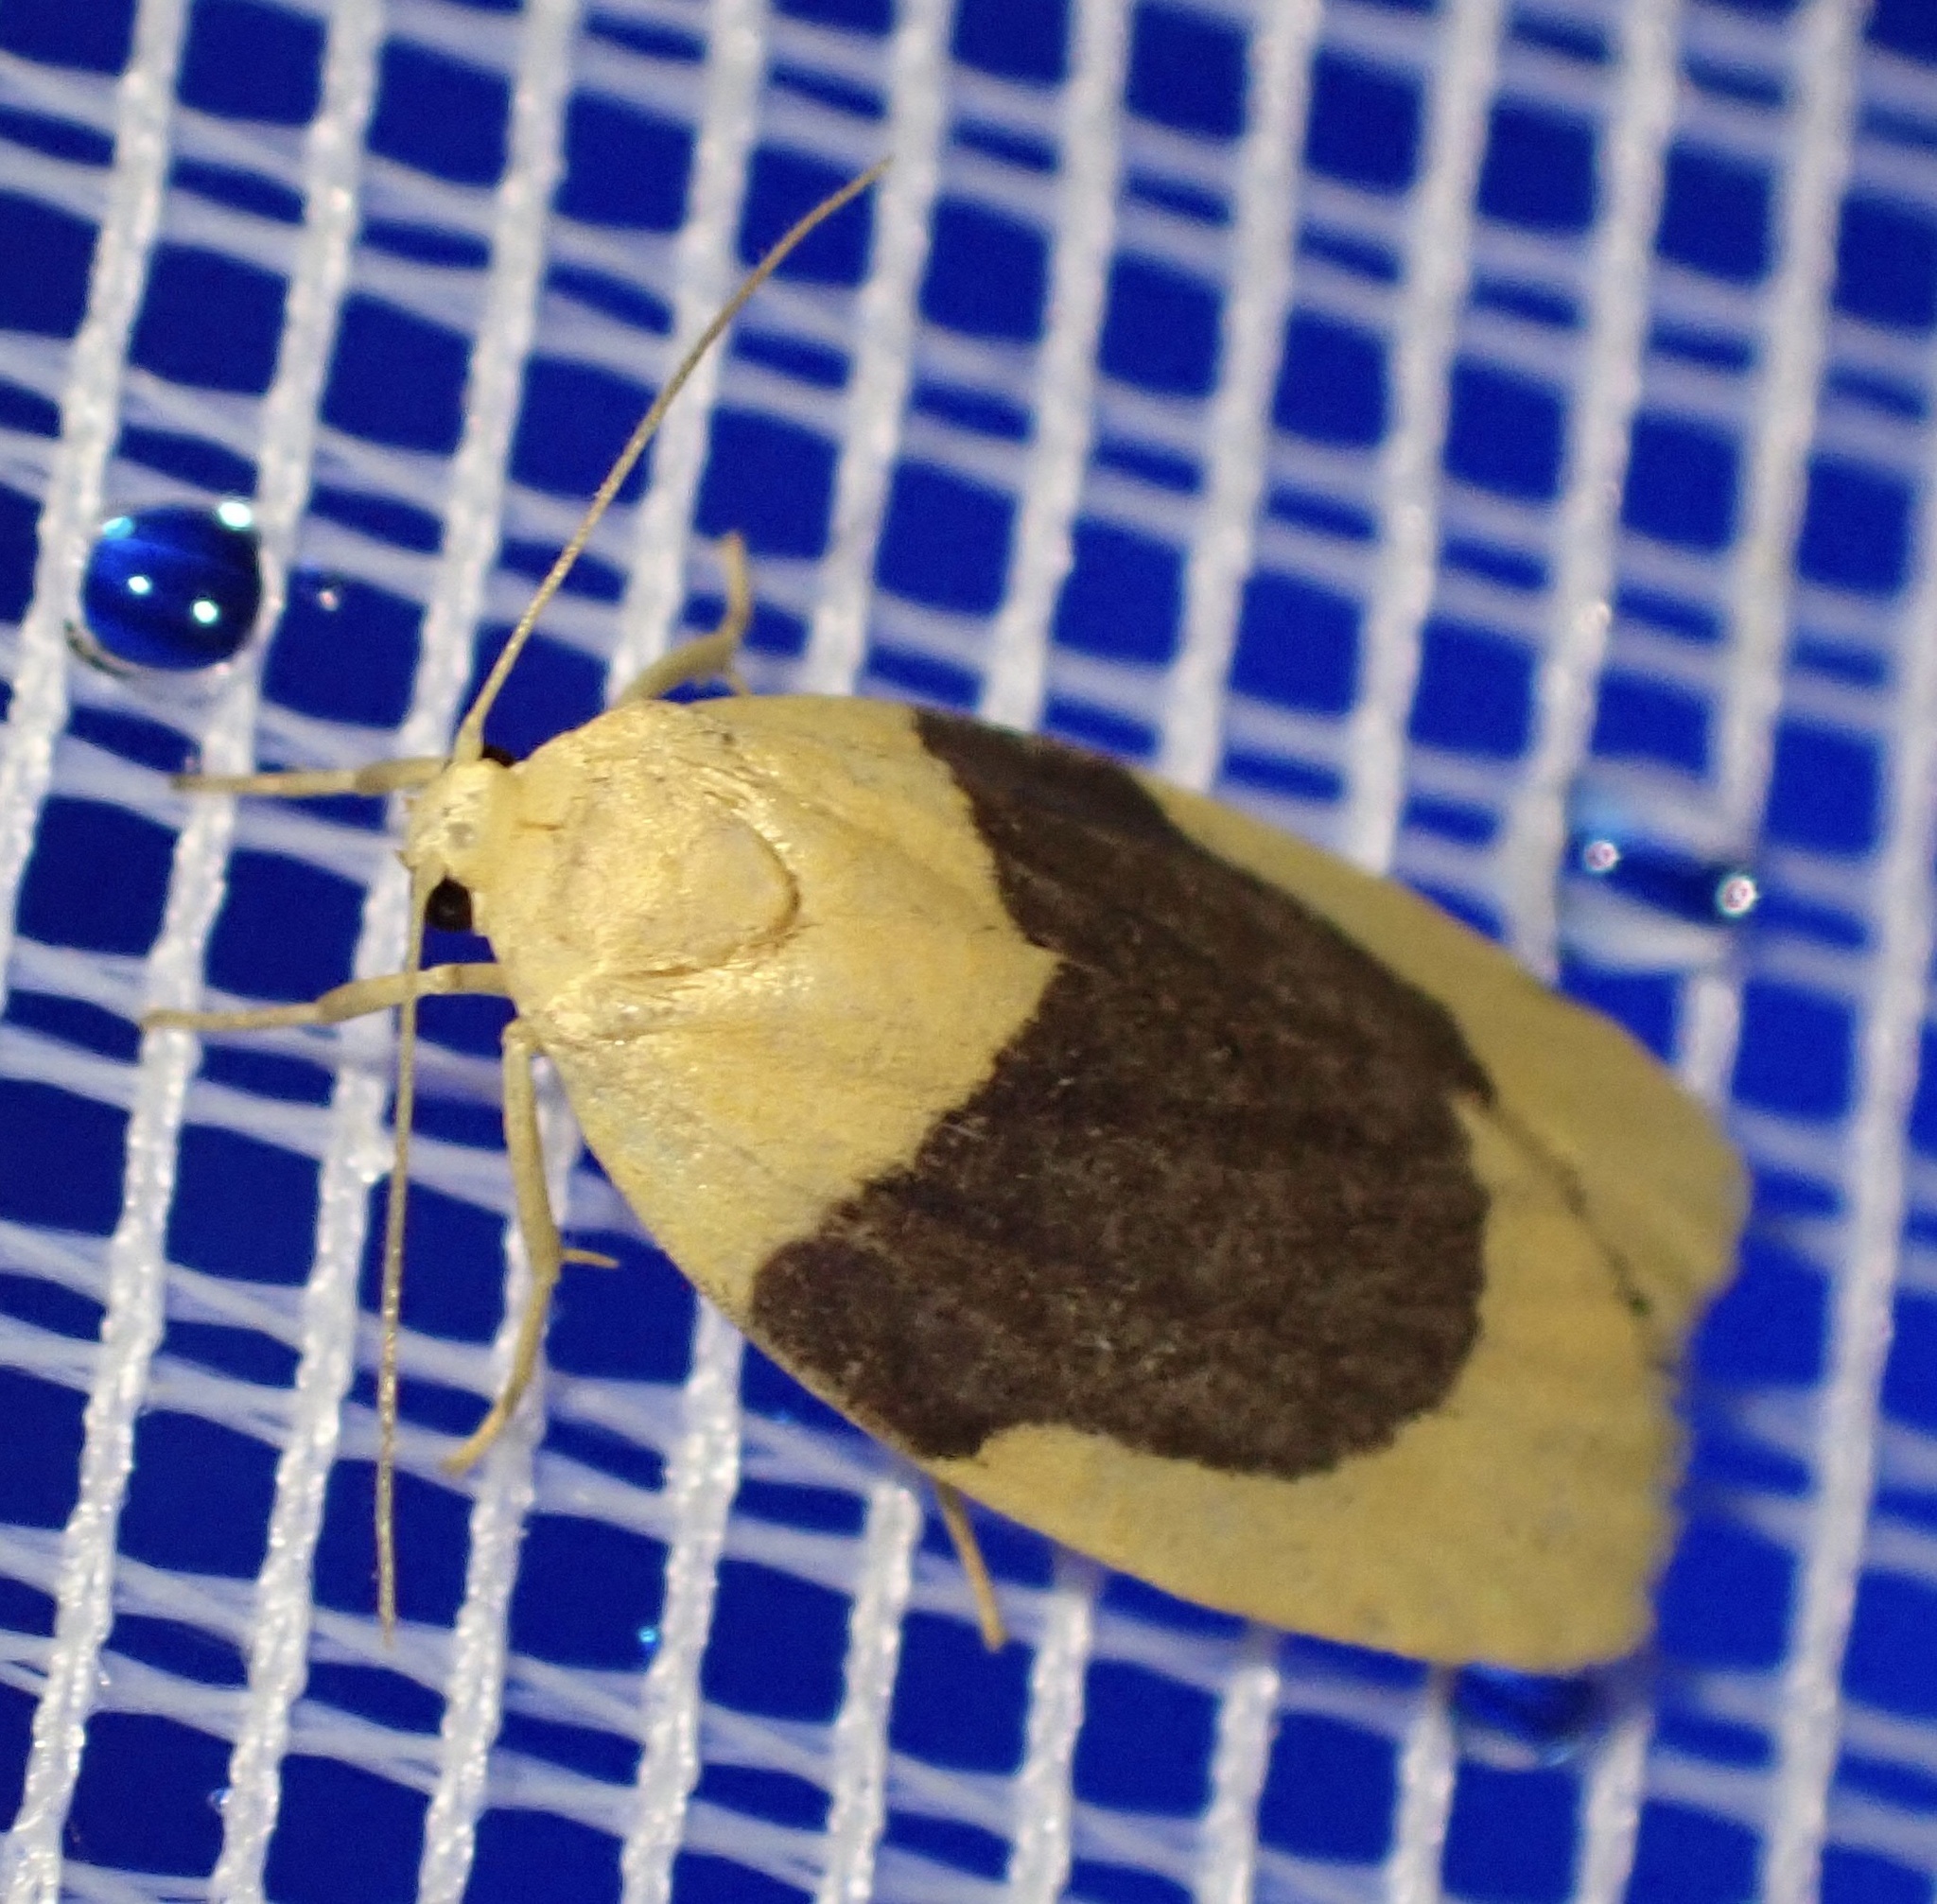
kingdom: Animalia
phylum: Arthropoda
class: Insecta
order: Lepidoptera
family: Erebidae
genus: Darantasia
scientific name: Darantasia cyanifera
